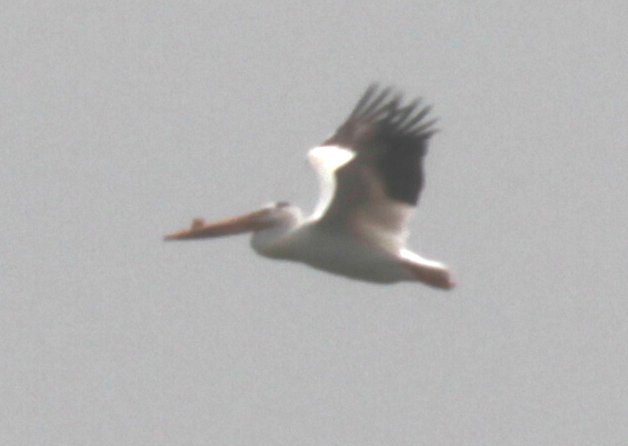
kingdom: Animalia
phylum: Chordata
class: Aves
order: Pelecaniformes
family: Pelecanidae
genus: Pelecanus
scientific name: Pelecanus erythrorhynchos
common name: American white pelican
